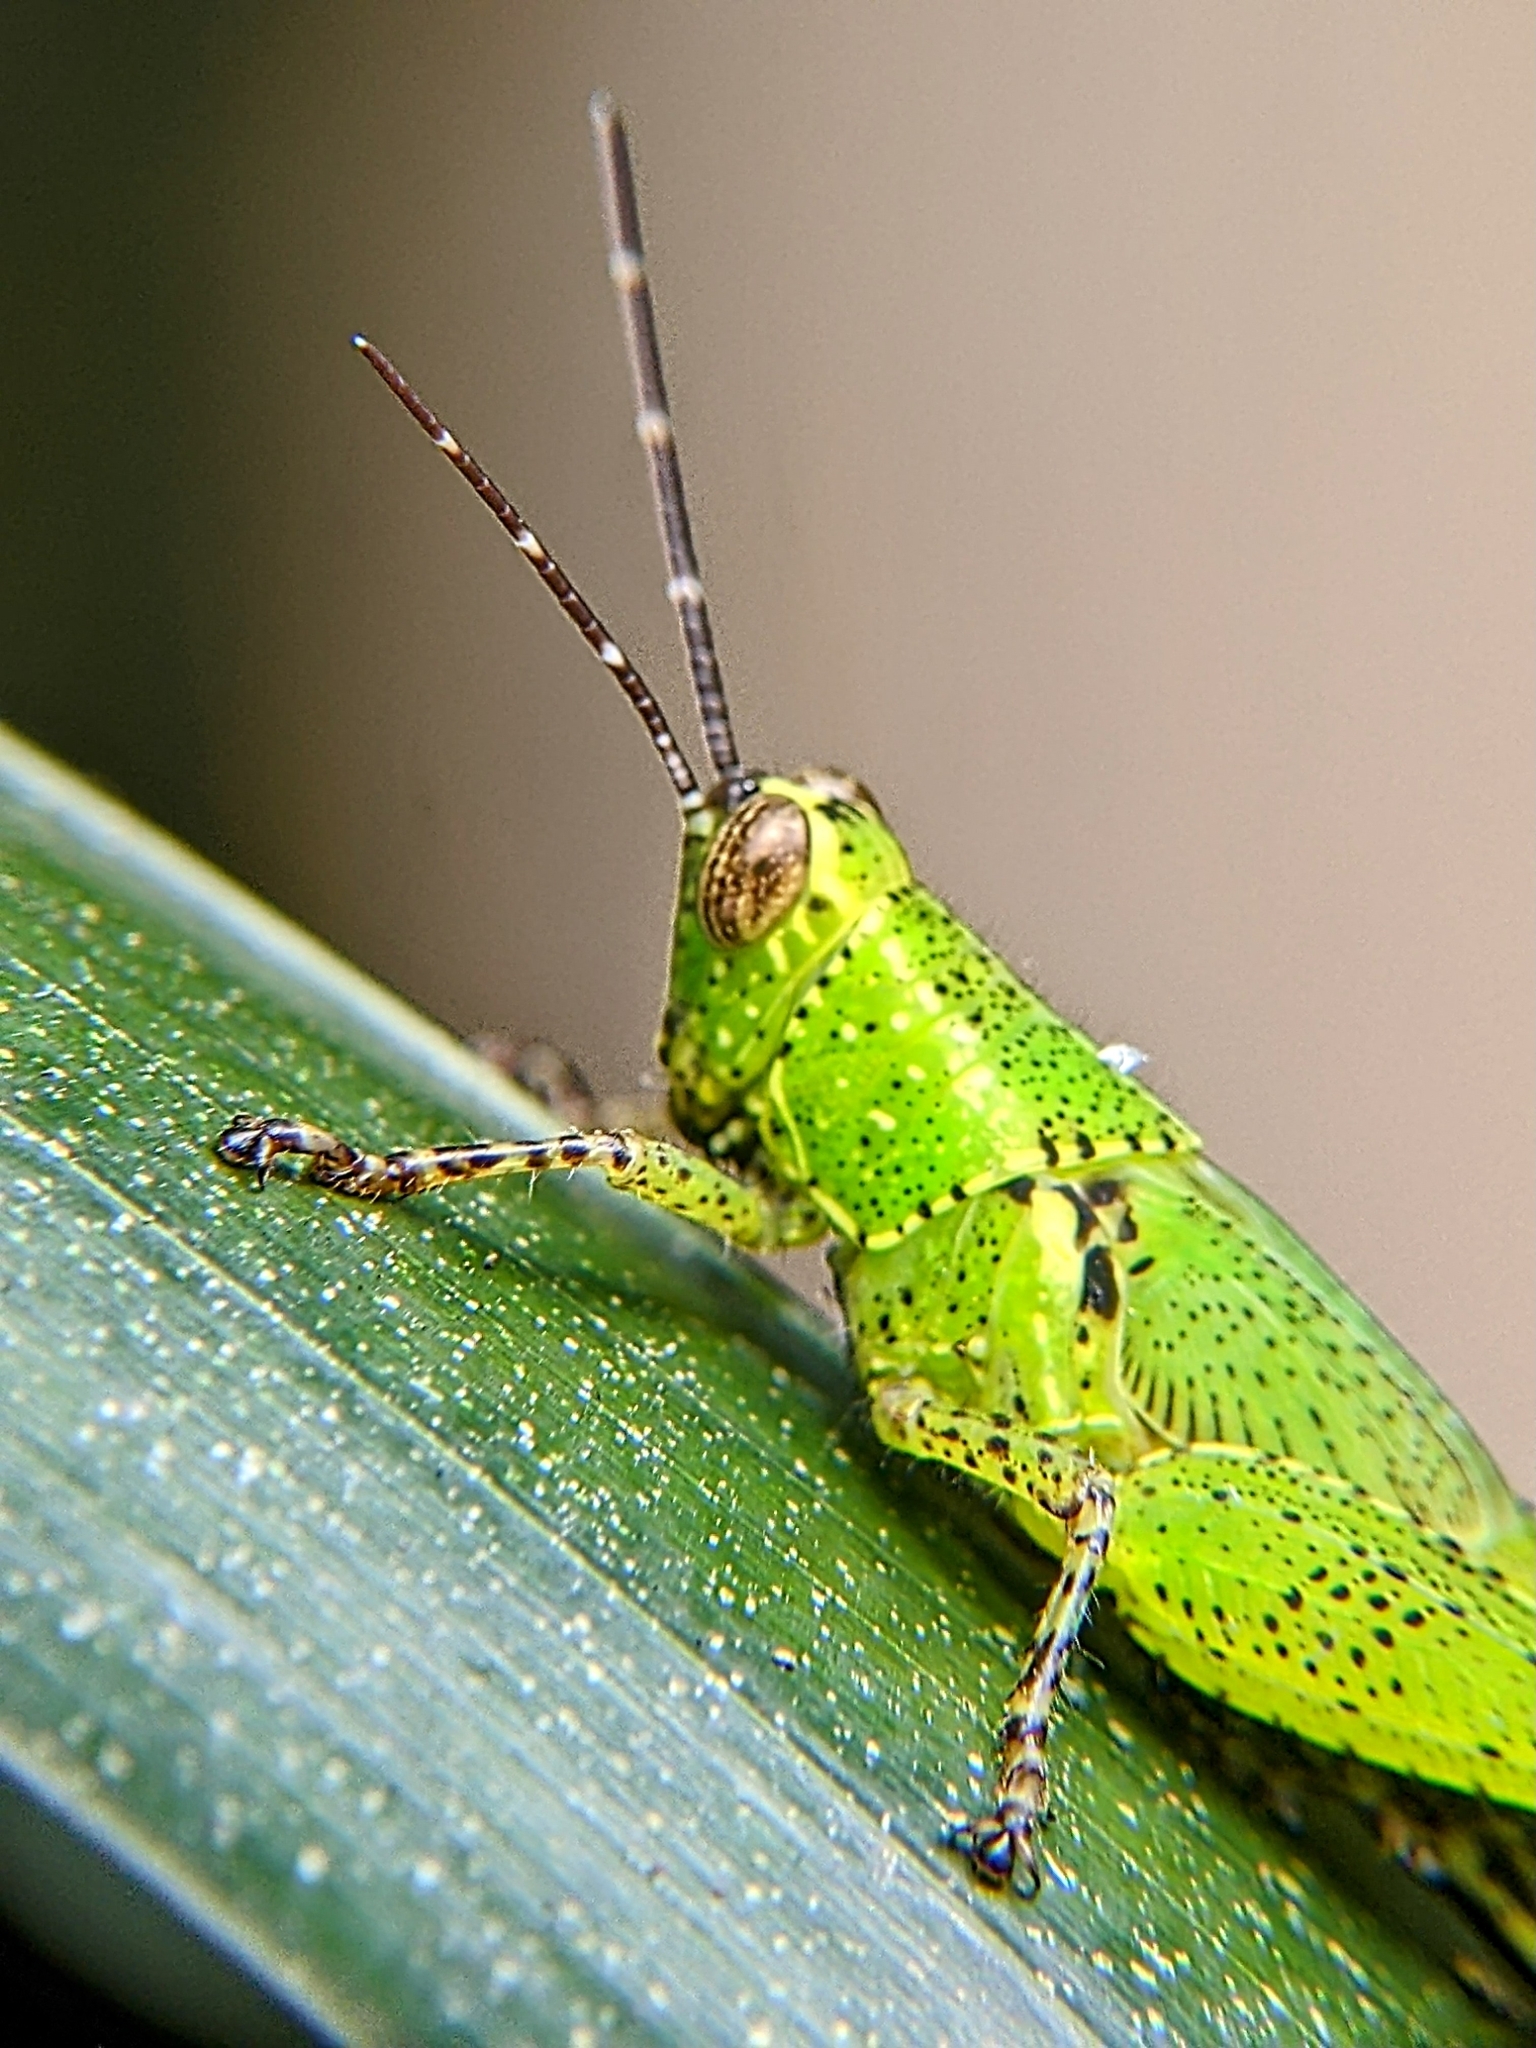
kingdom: Animalia
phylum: Arthropoda
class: Insecta
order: Orthoptera
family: Acrididae
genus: Xenocatantops
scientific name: Xenocatantops humile
